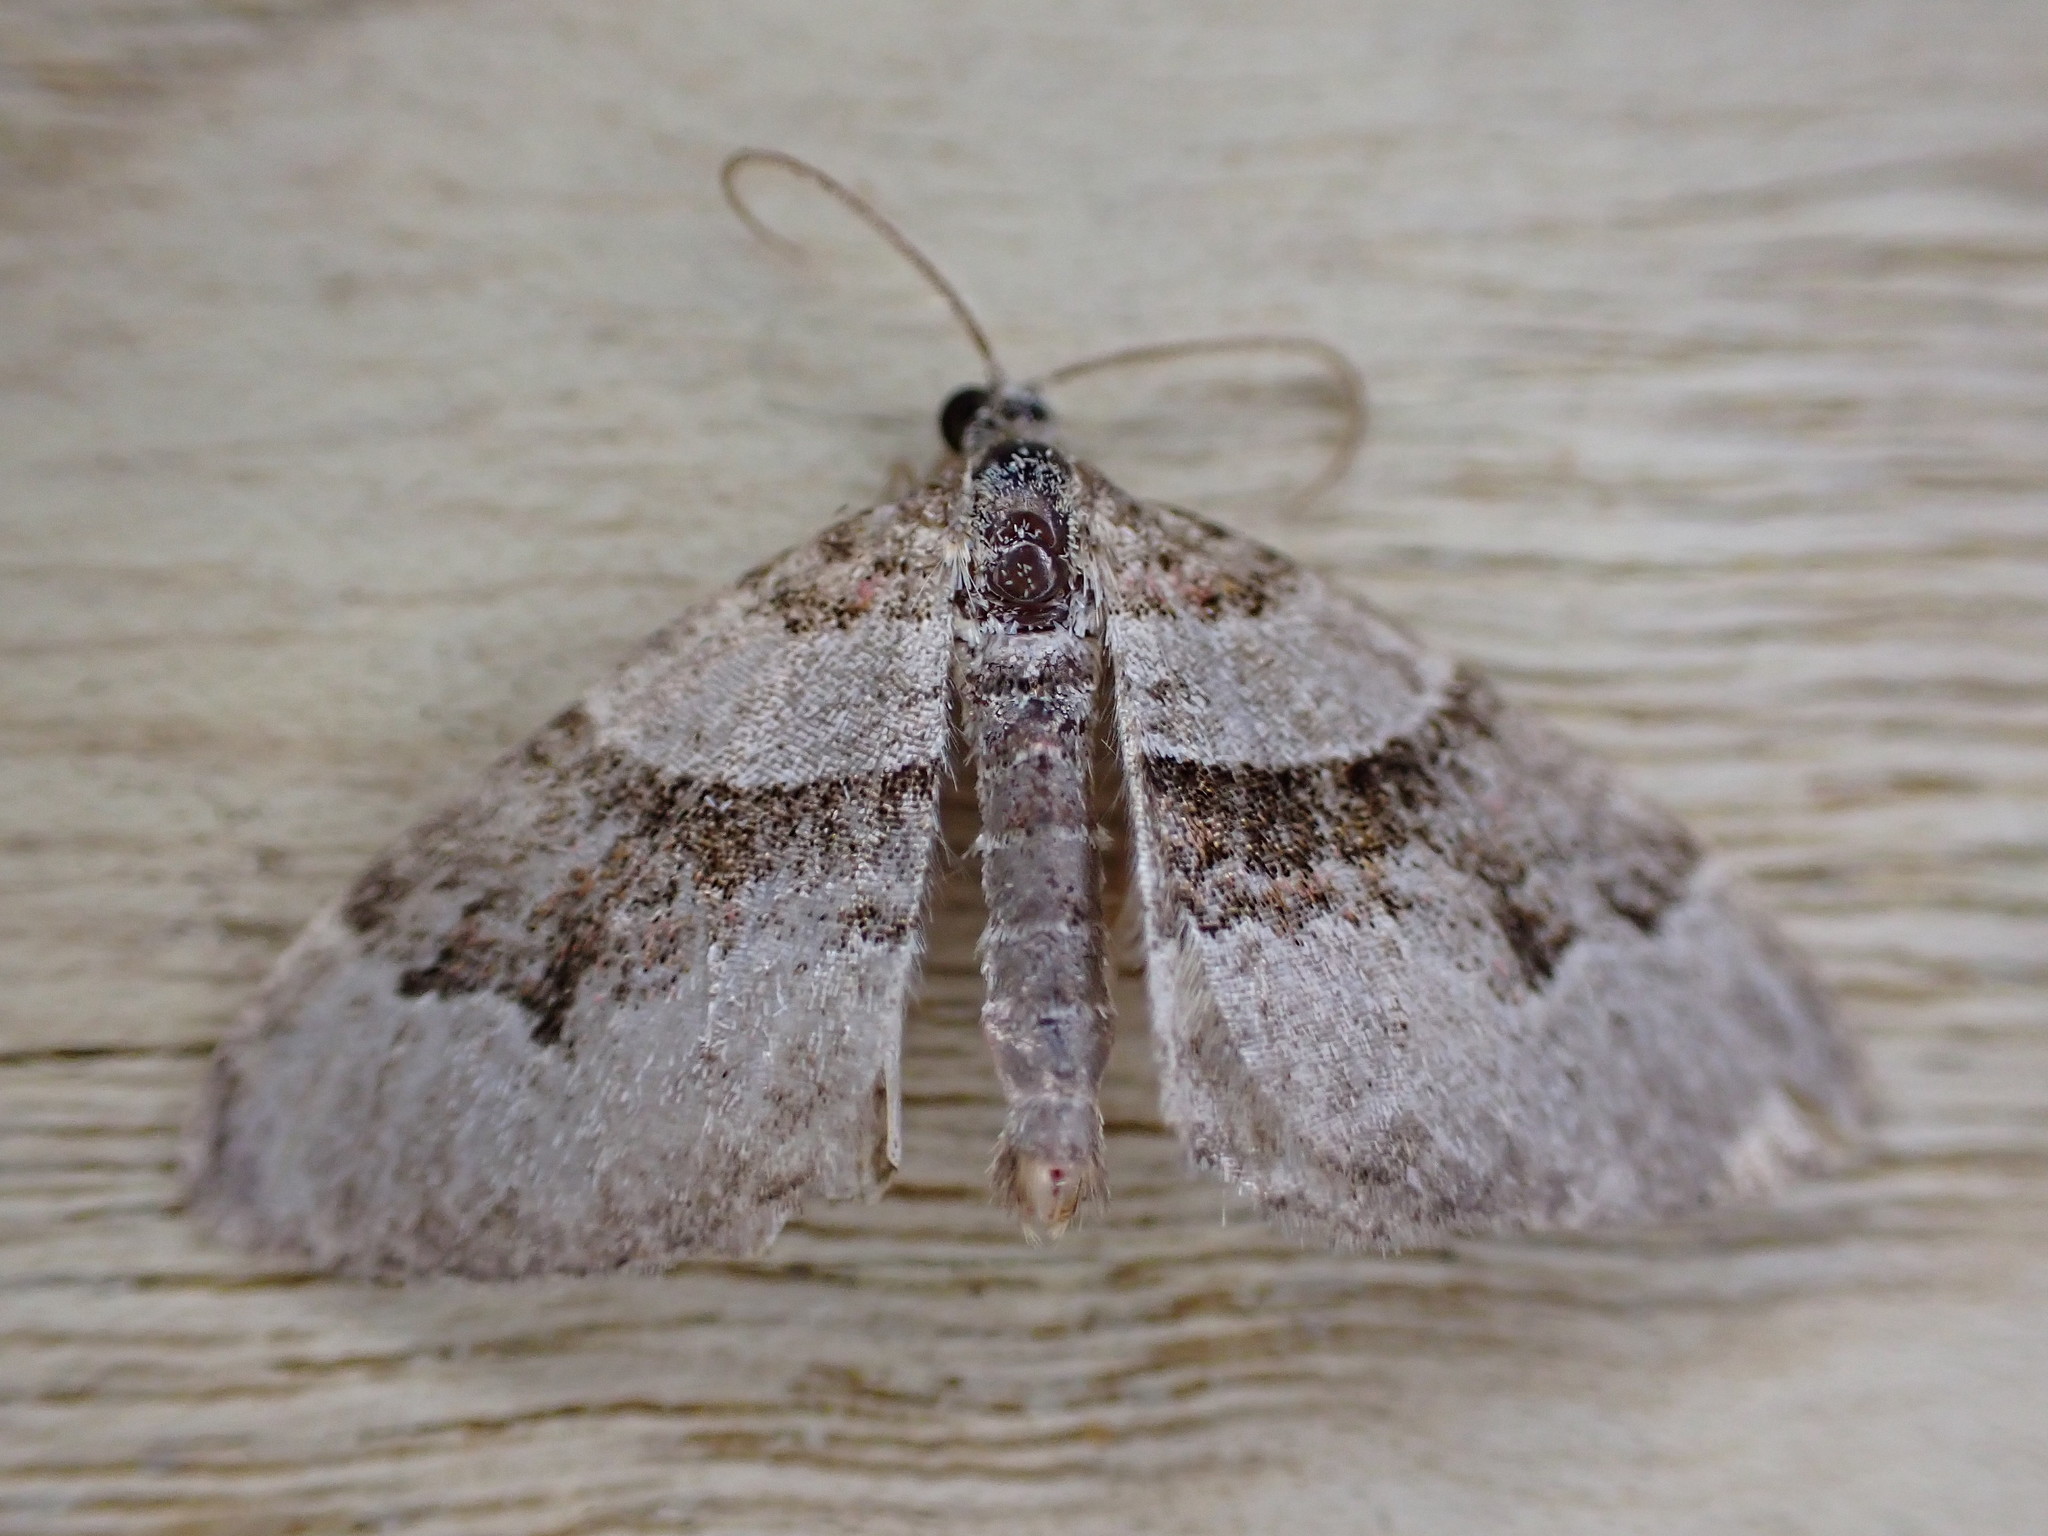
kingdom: Animalia
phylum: Arthropoda
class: Insecta
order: Lepidoptera
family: Geometridae
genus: Xanthorhoe
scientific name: Xanthorhoe designata
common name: Flame carpet
